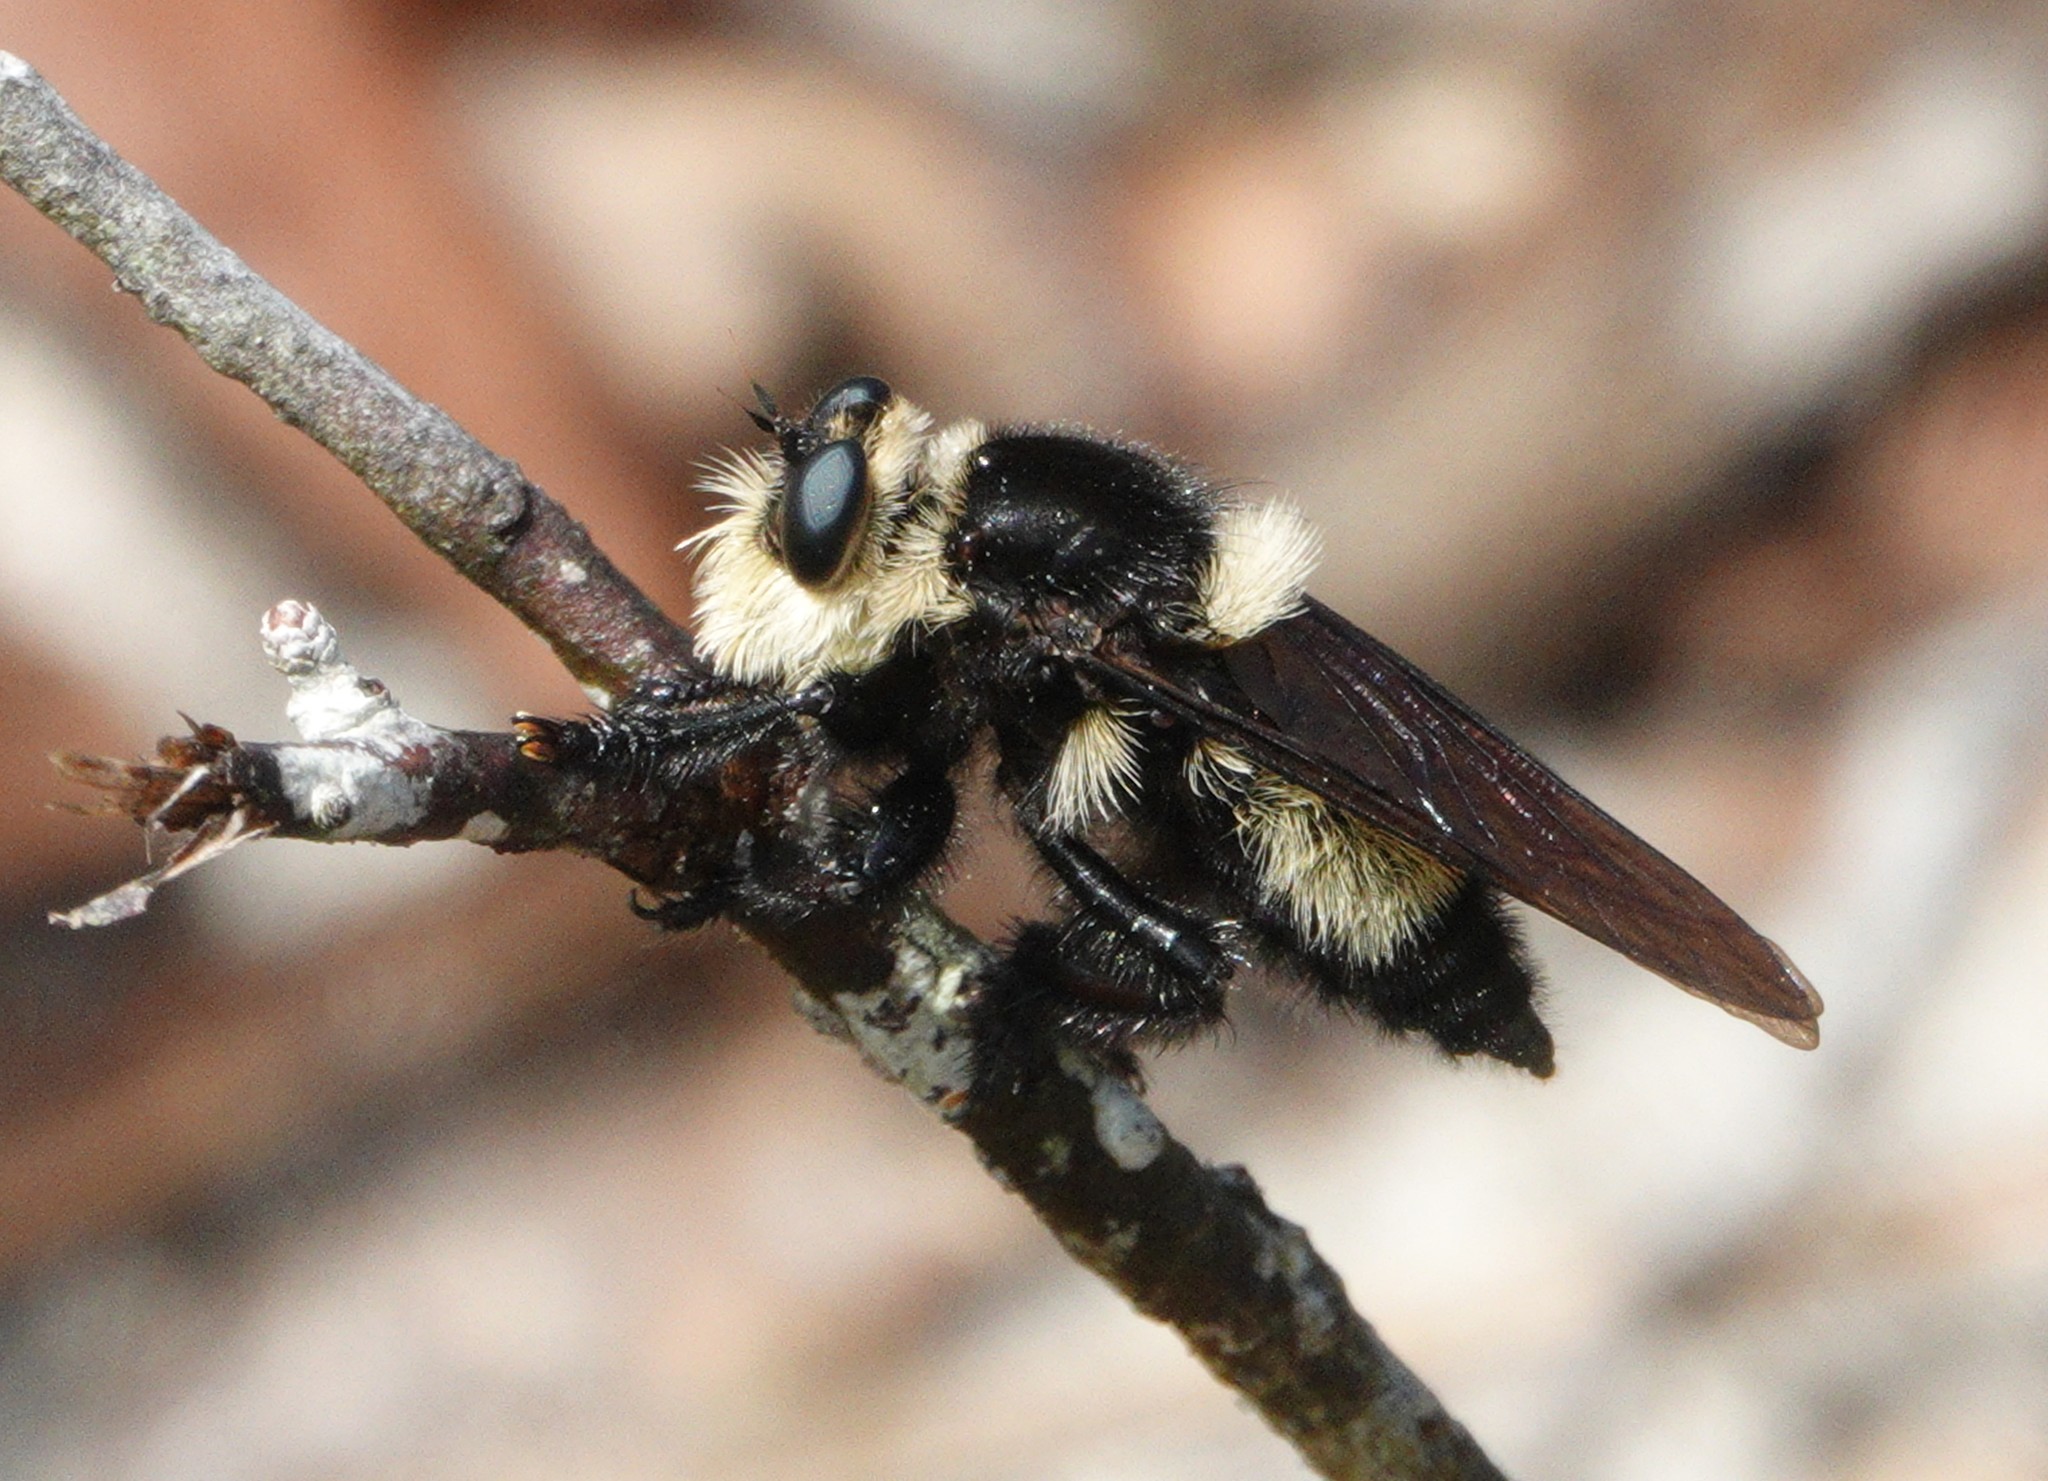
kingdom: Animalia
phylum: Arthropoda
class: Insecta
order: Diptera
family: Asilidae
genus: Mallophora
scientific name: Mallophora orcina
